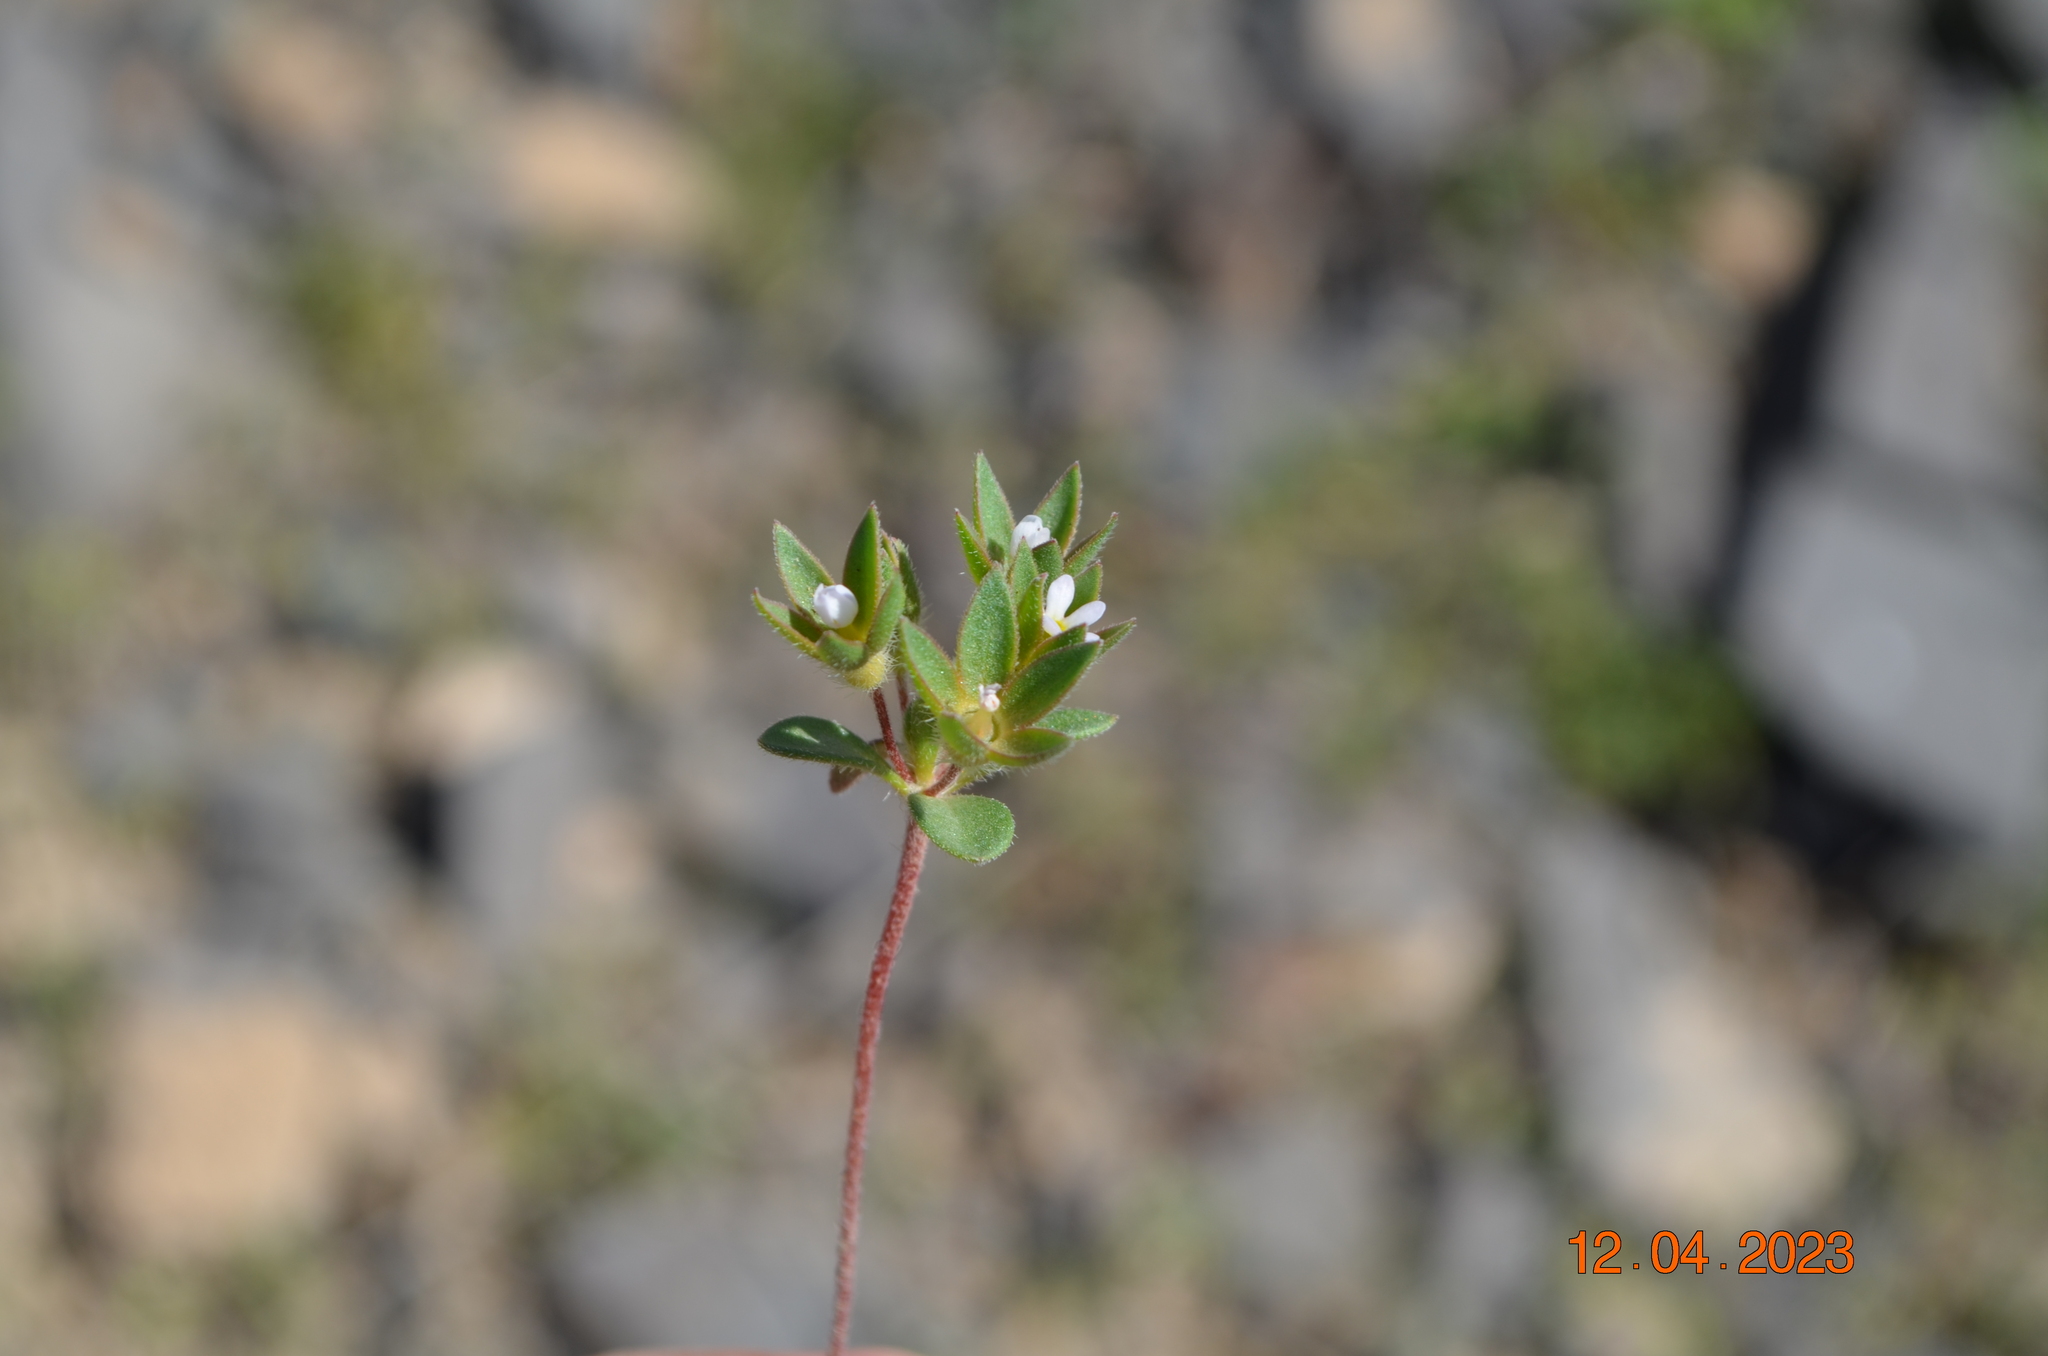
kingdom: Plantae
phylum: Tracheophyta
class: Magnoliopsida
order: Ericales
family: Primulaceae
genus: Androsace
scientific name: Androsace maxima
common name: Annual androsace
